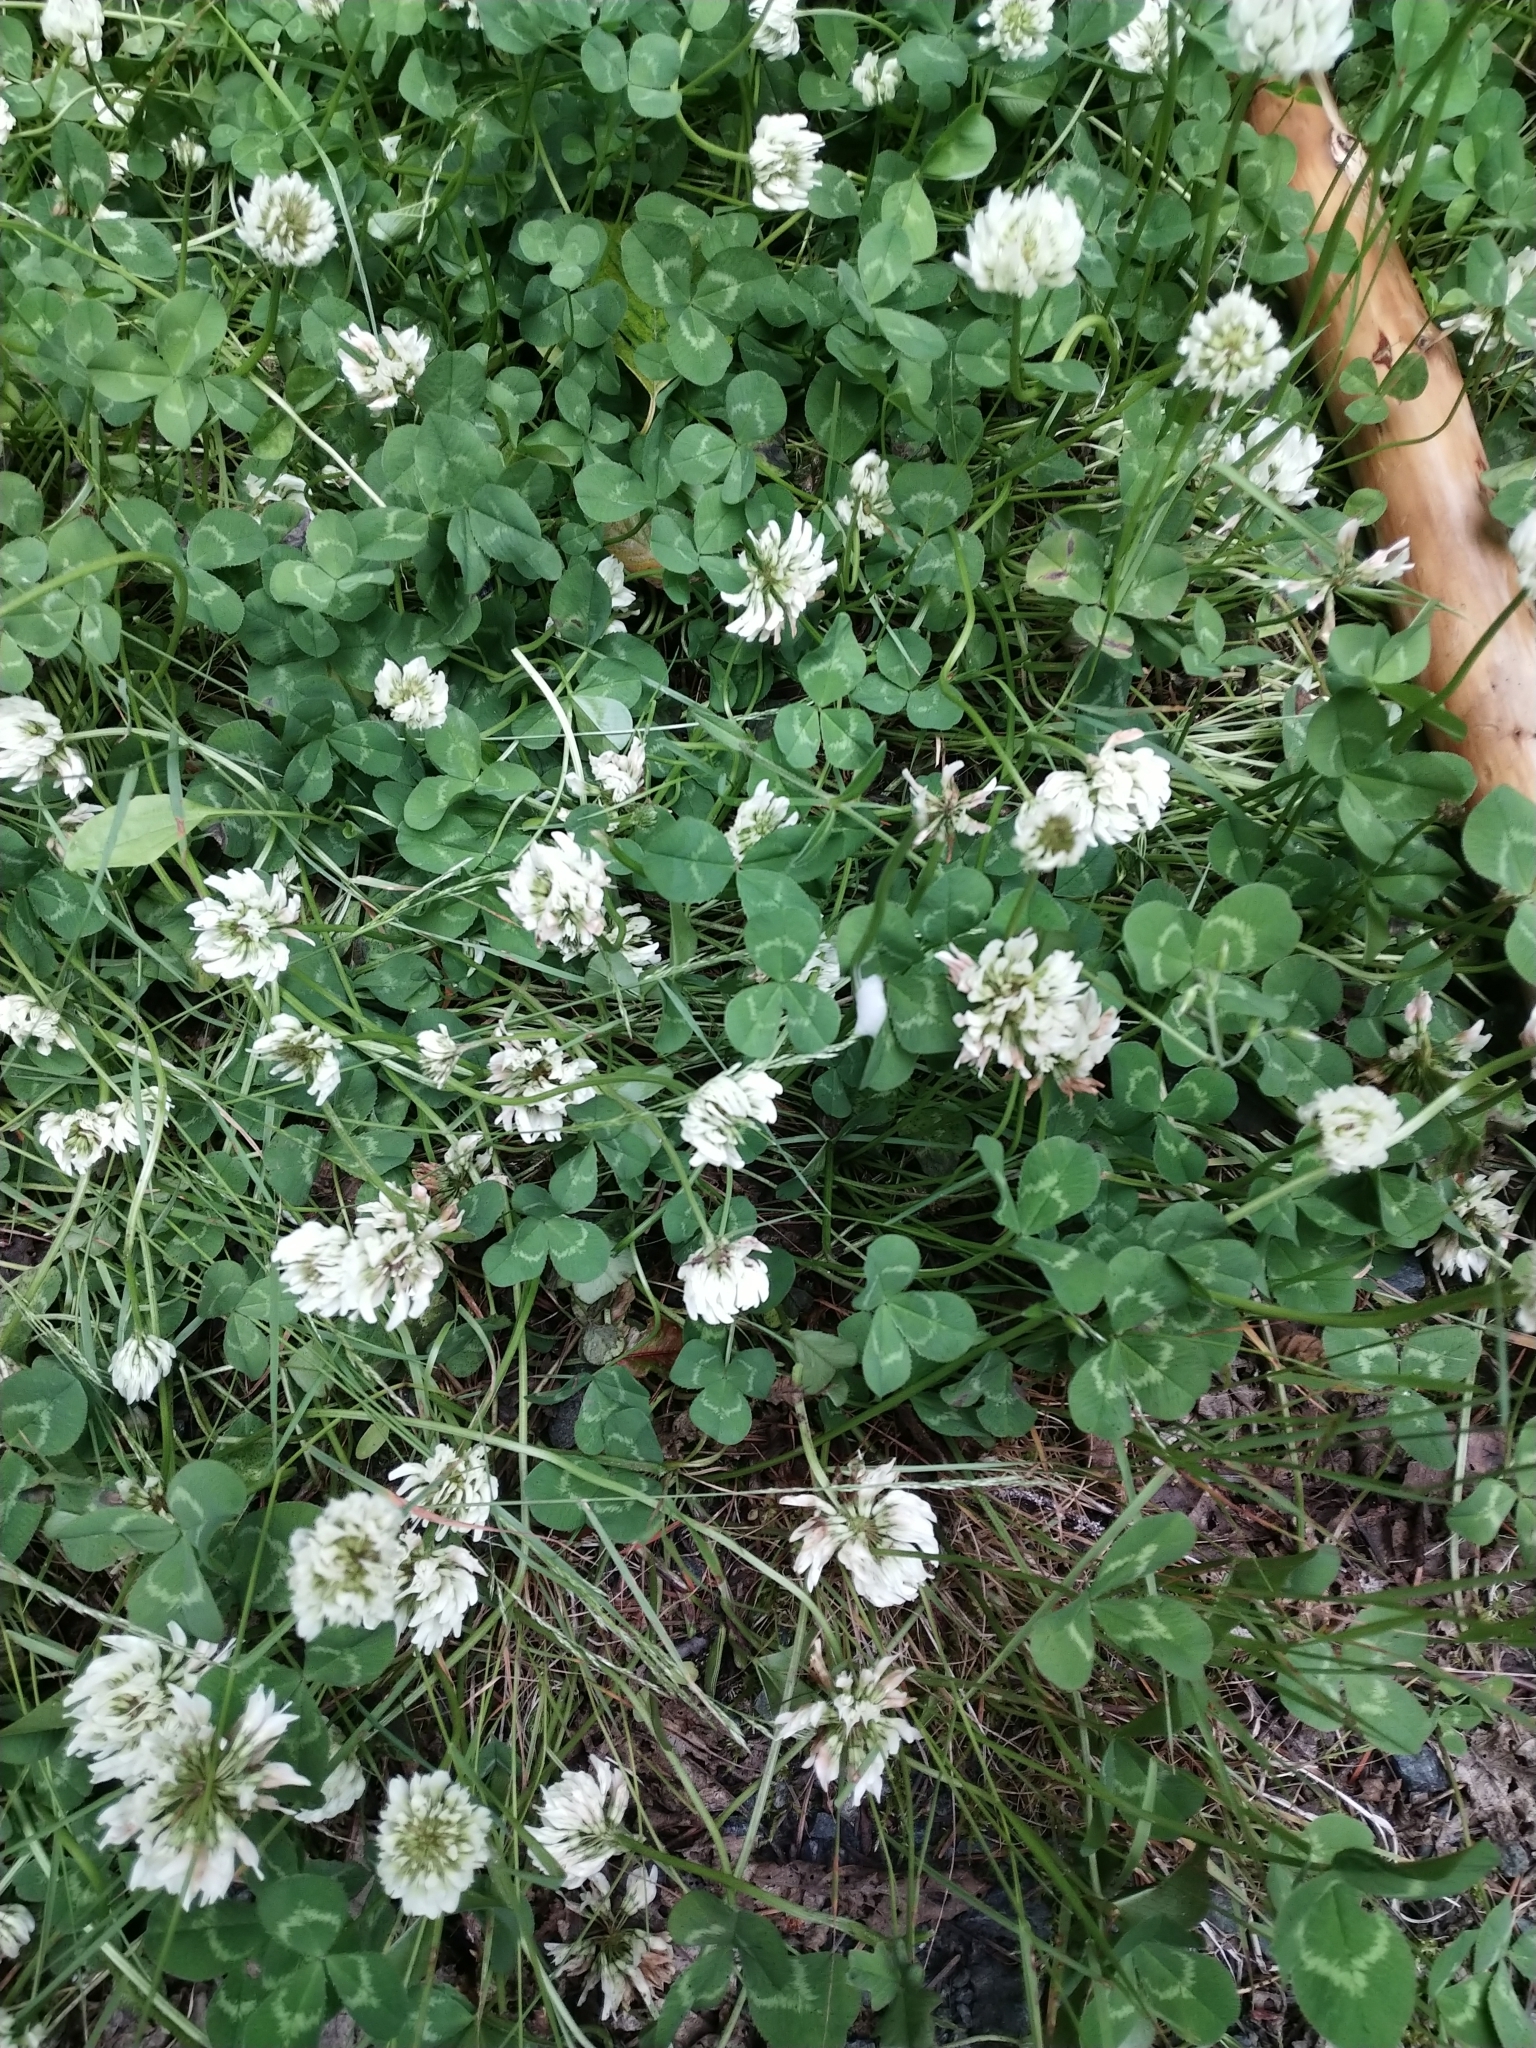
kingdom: Plantae
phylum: Tracheophyta
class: Magnoliopsida
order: Fabales
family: Fabaceae
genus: Trifolium
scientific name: Trifolium repens
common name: White clover
